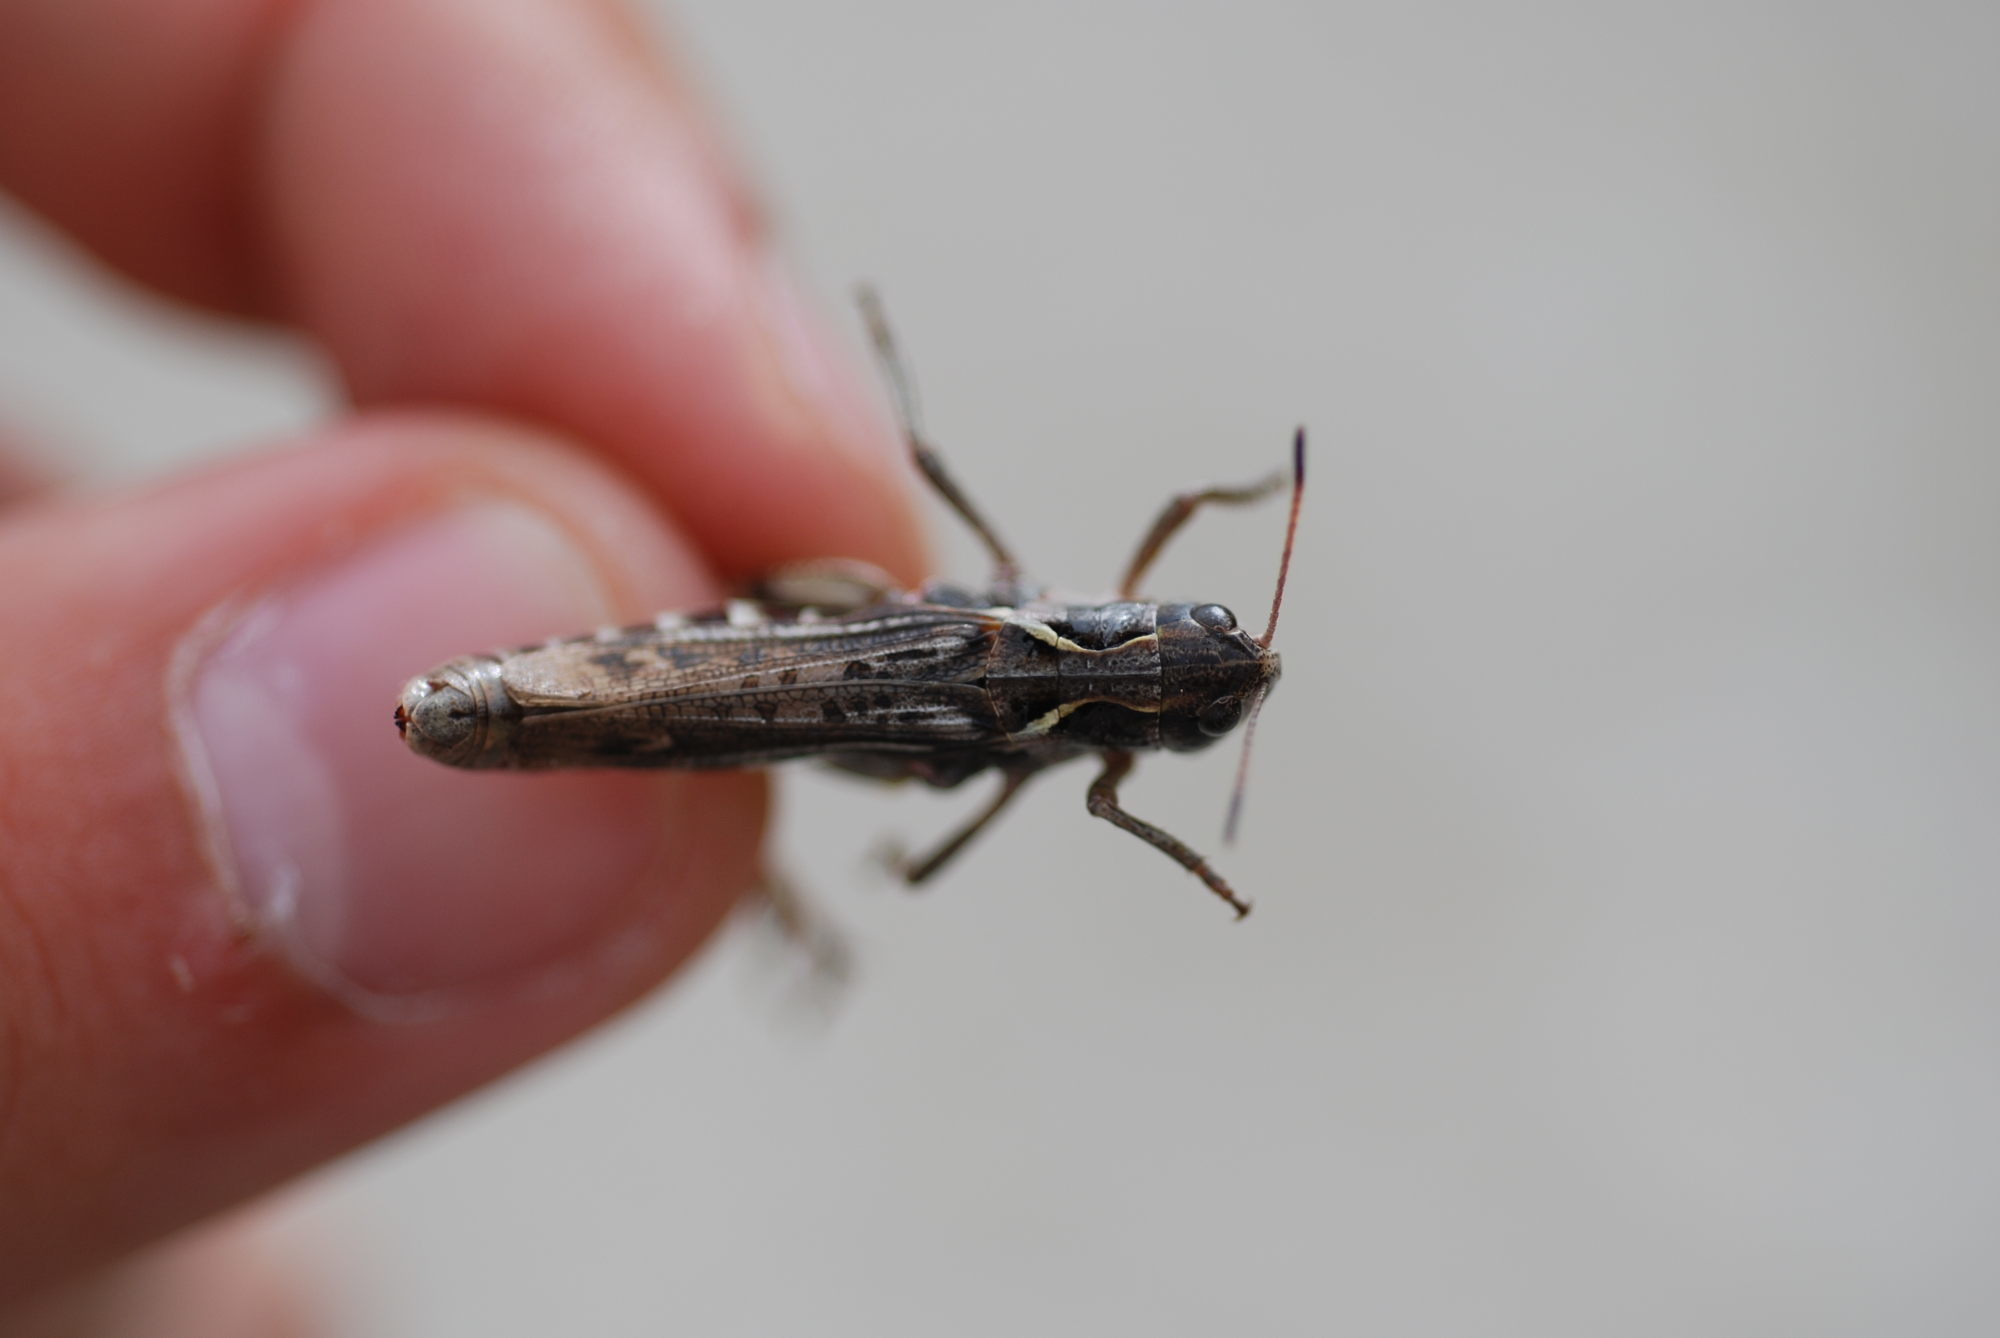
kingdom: Animalia
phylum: Arthropoda
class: Insecta
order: Orthoptera
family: Acrididae
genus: Gomphocerus
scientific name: Gomphocerus sibiricus
